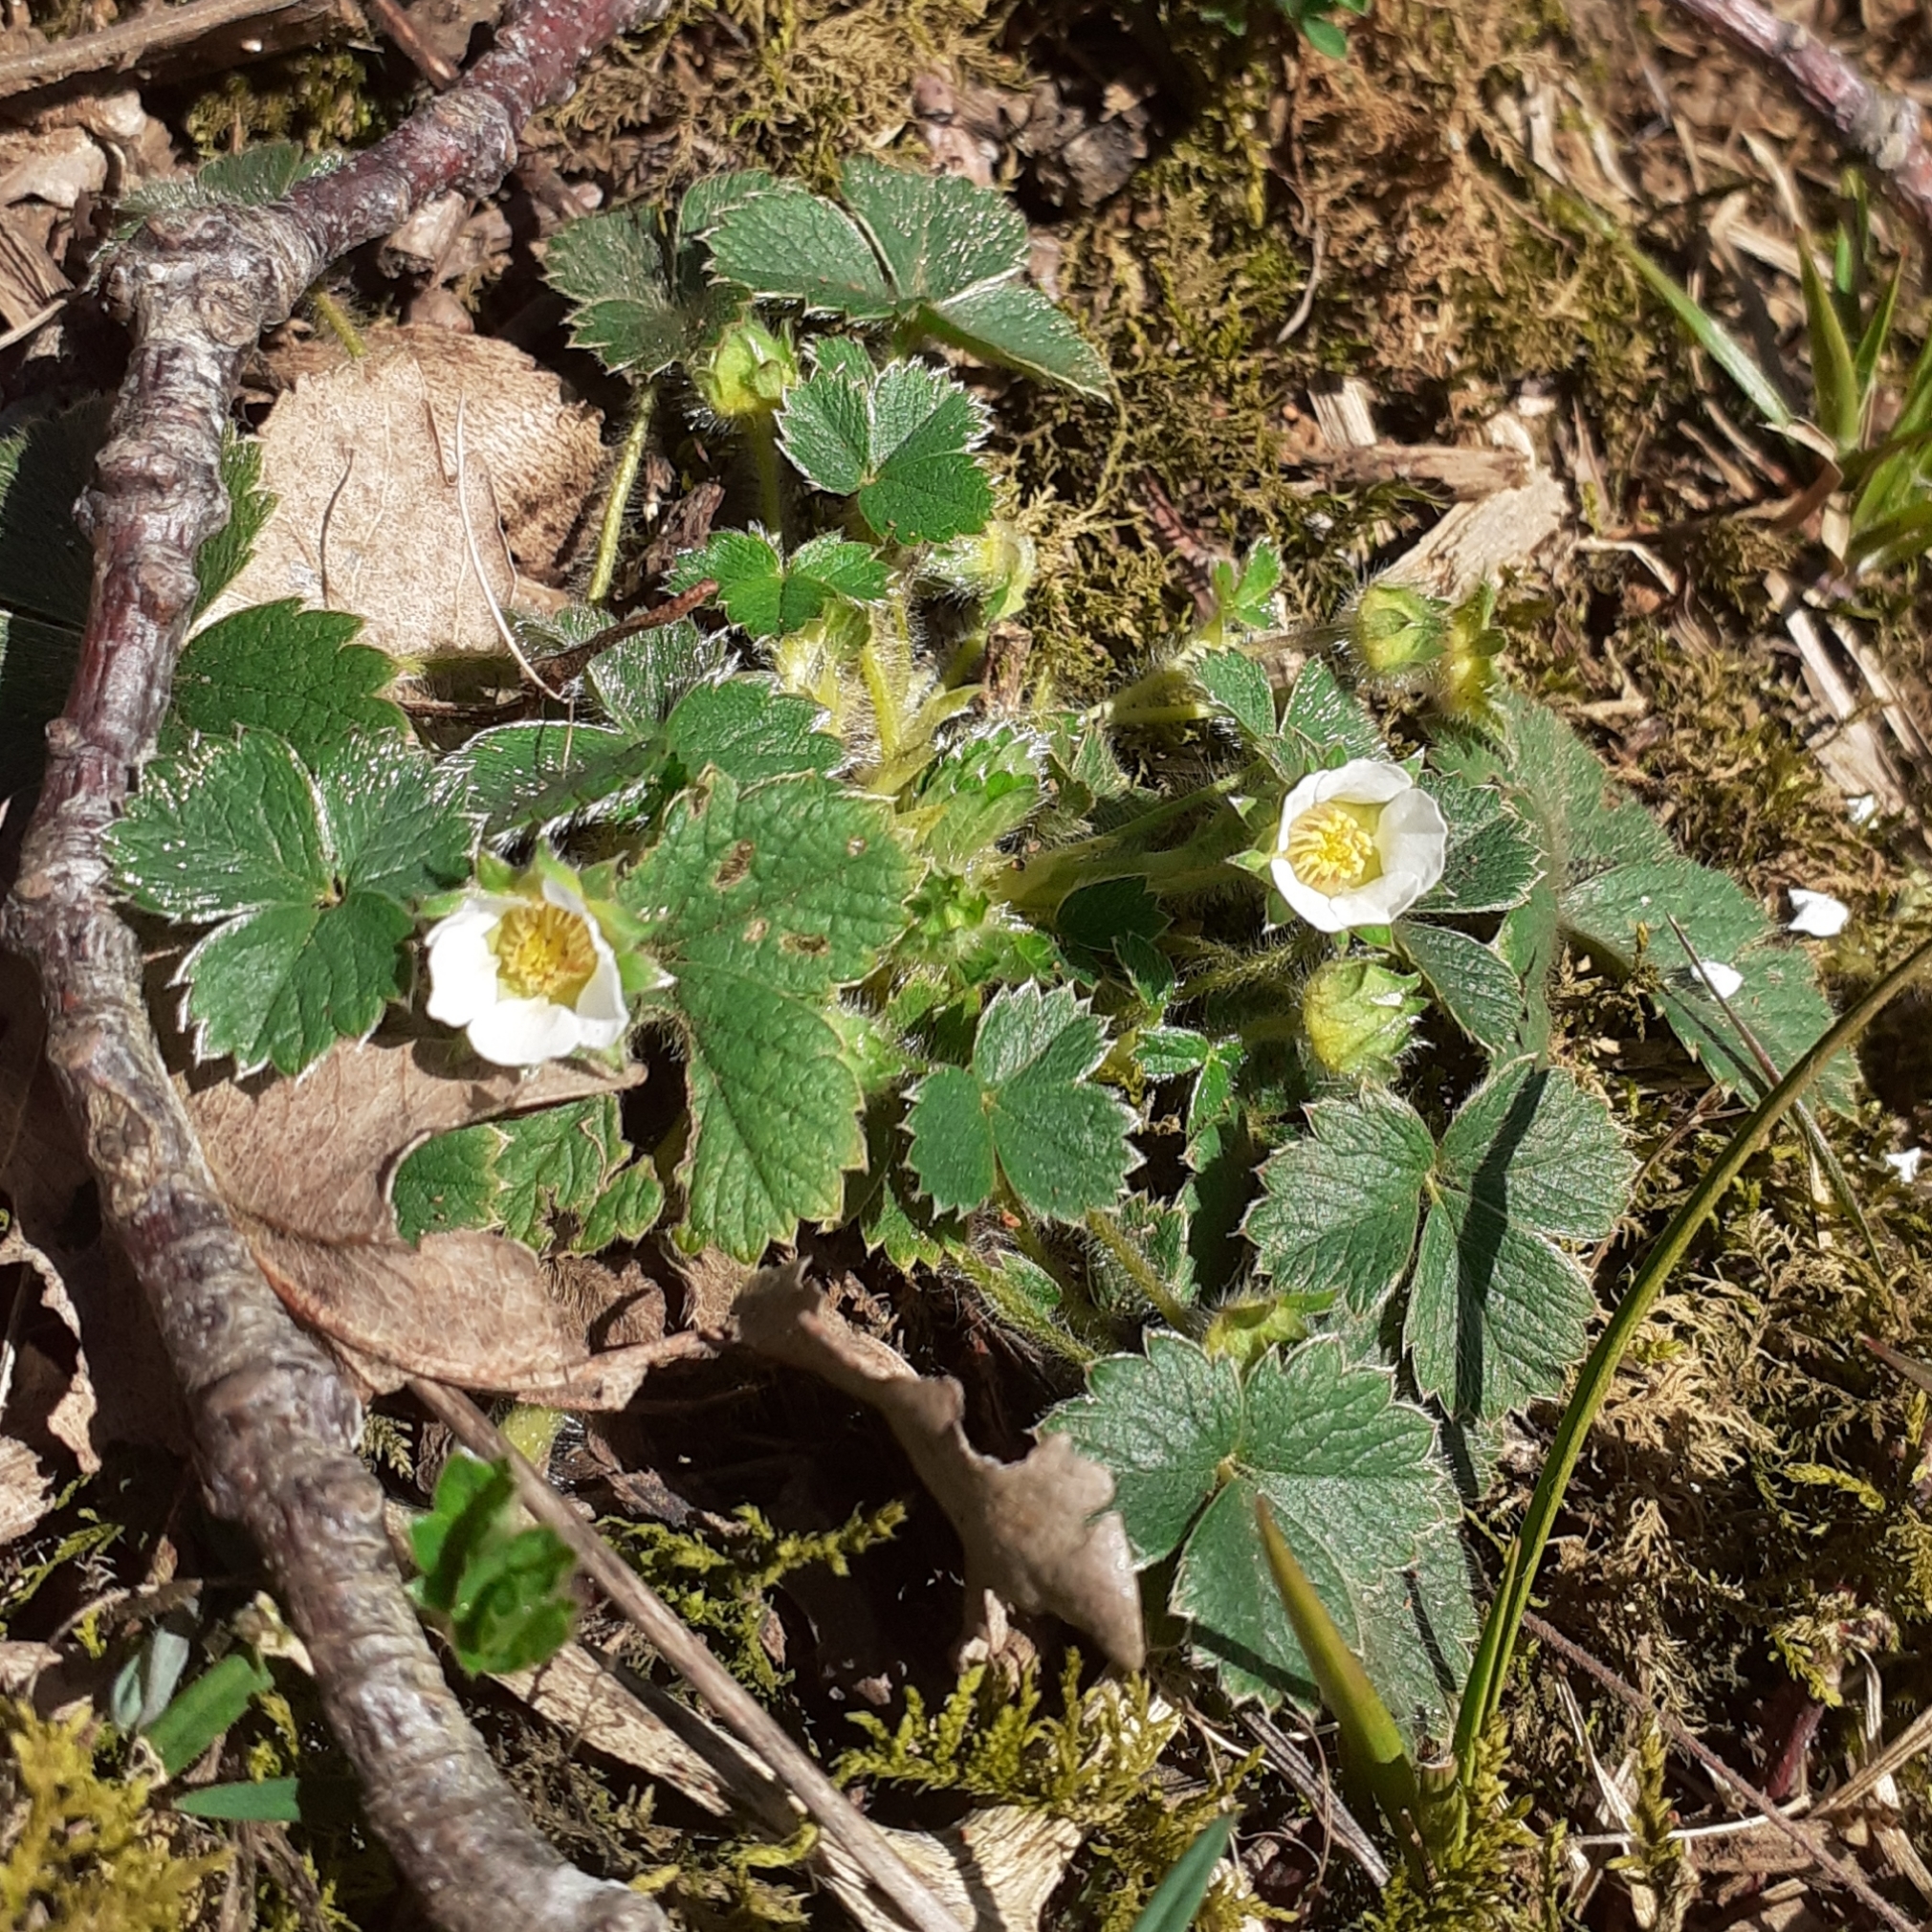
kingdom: Plantae
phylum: Tracheophyta
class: Magnoliopsida
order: Rosales
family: Rosaceae
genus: Potentilla
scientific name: Potentilla sterilis
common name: Barren strawberry
